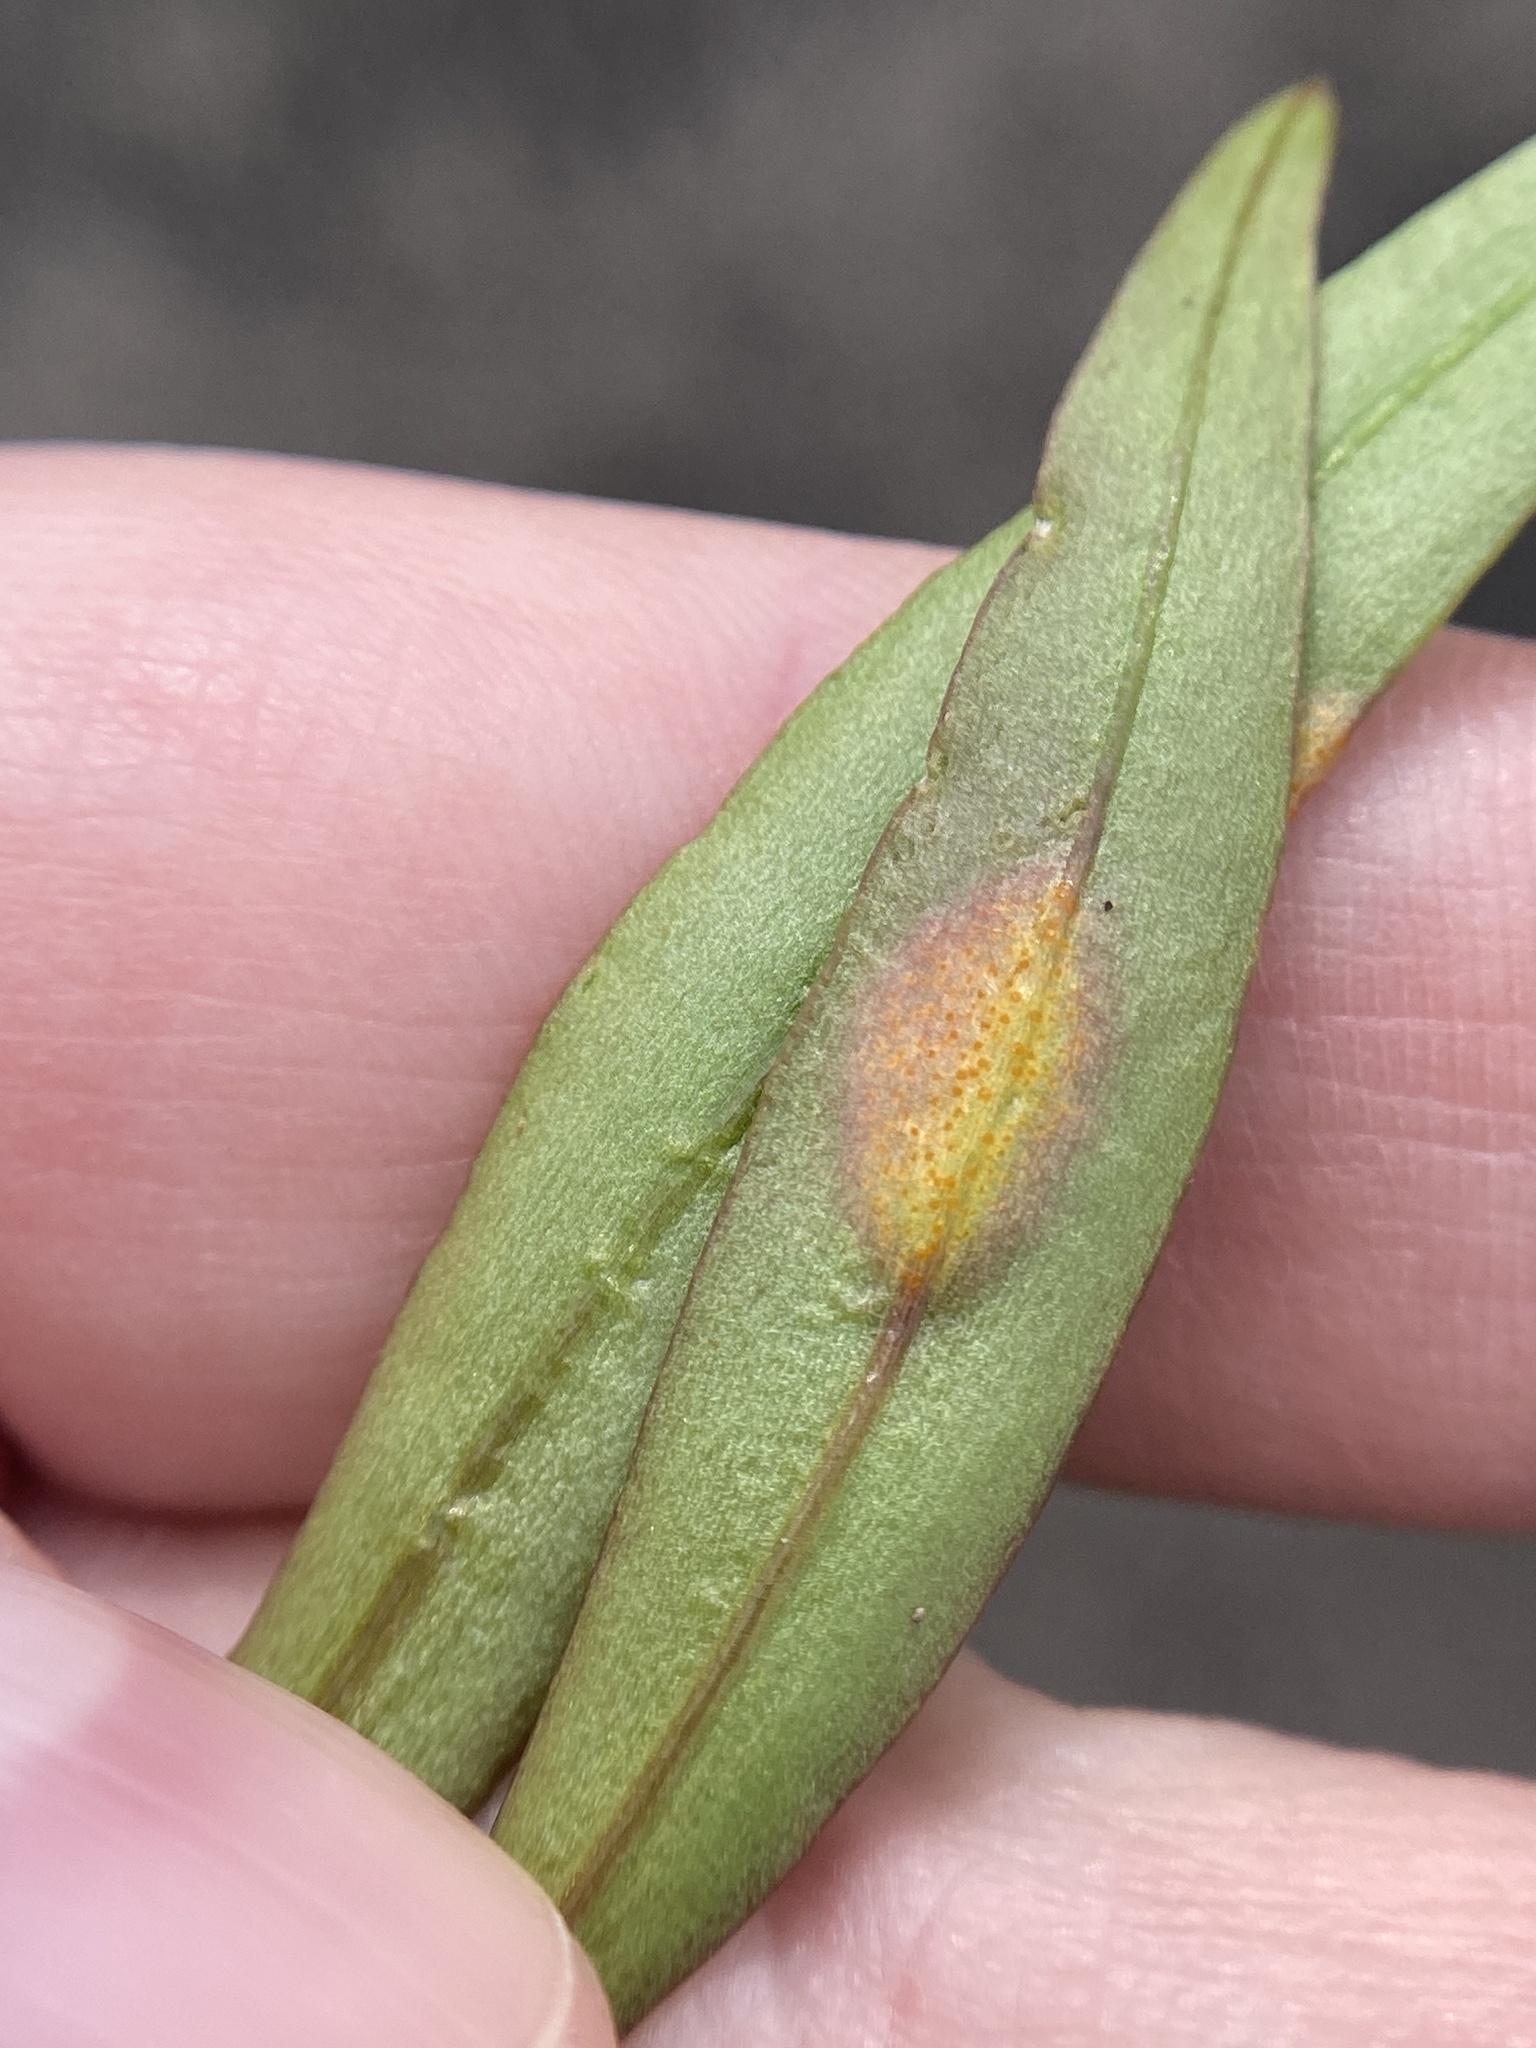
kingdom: Fungi
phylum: Basidiomycota
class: Pucciniomycetes
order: Pucciniales
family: Pucciniaceae
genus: Puccinia
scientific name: Puccinia mariae-wilsoniae
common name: Spring beauty rust
